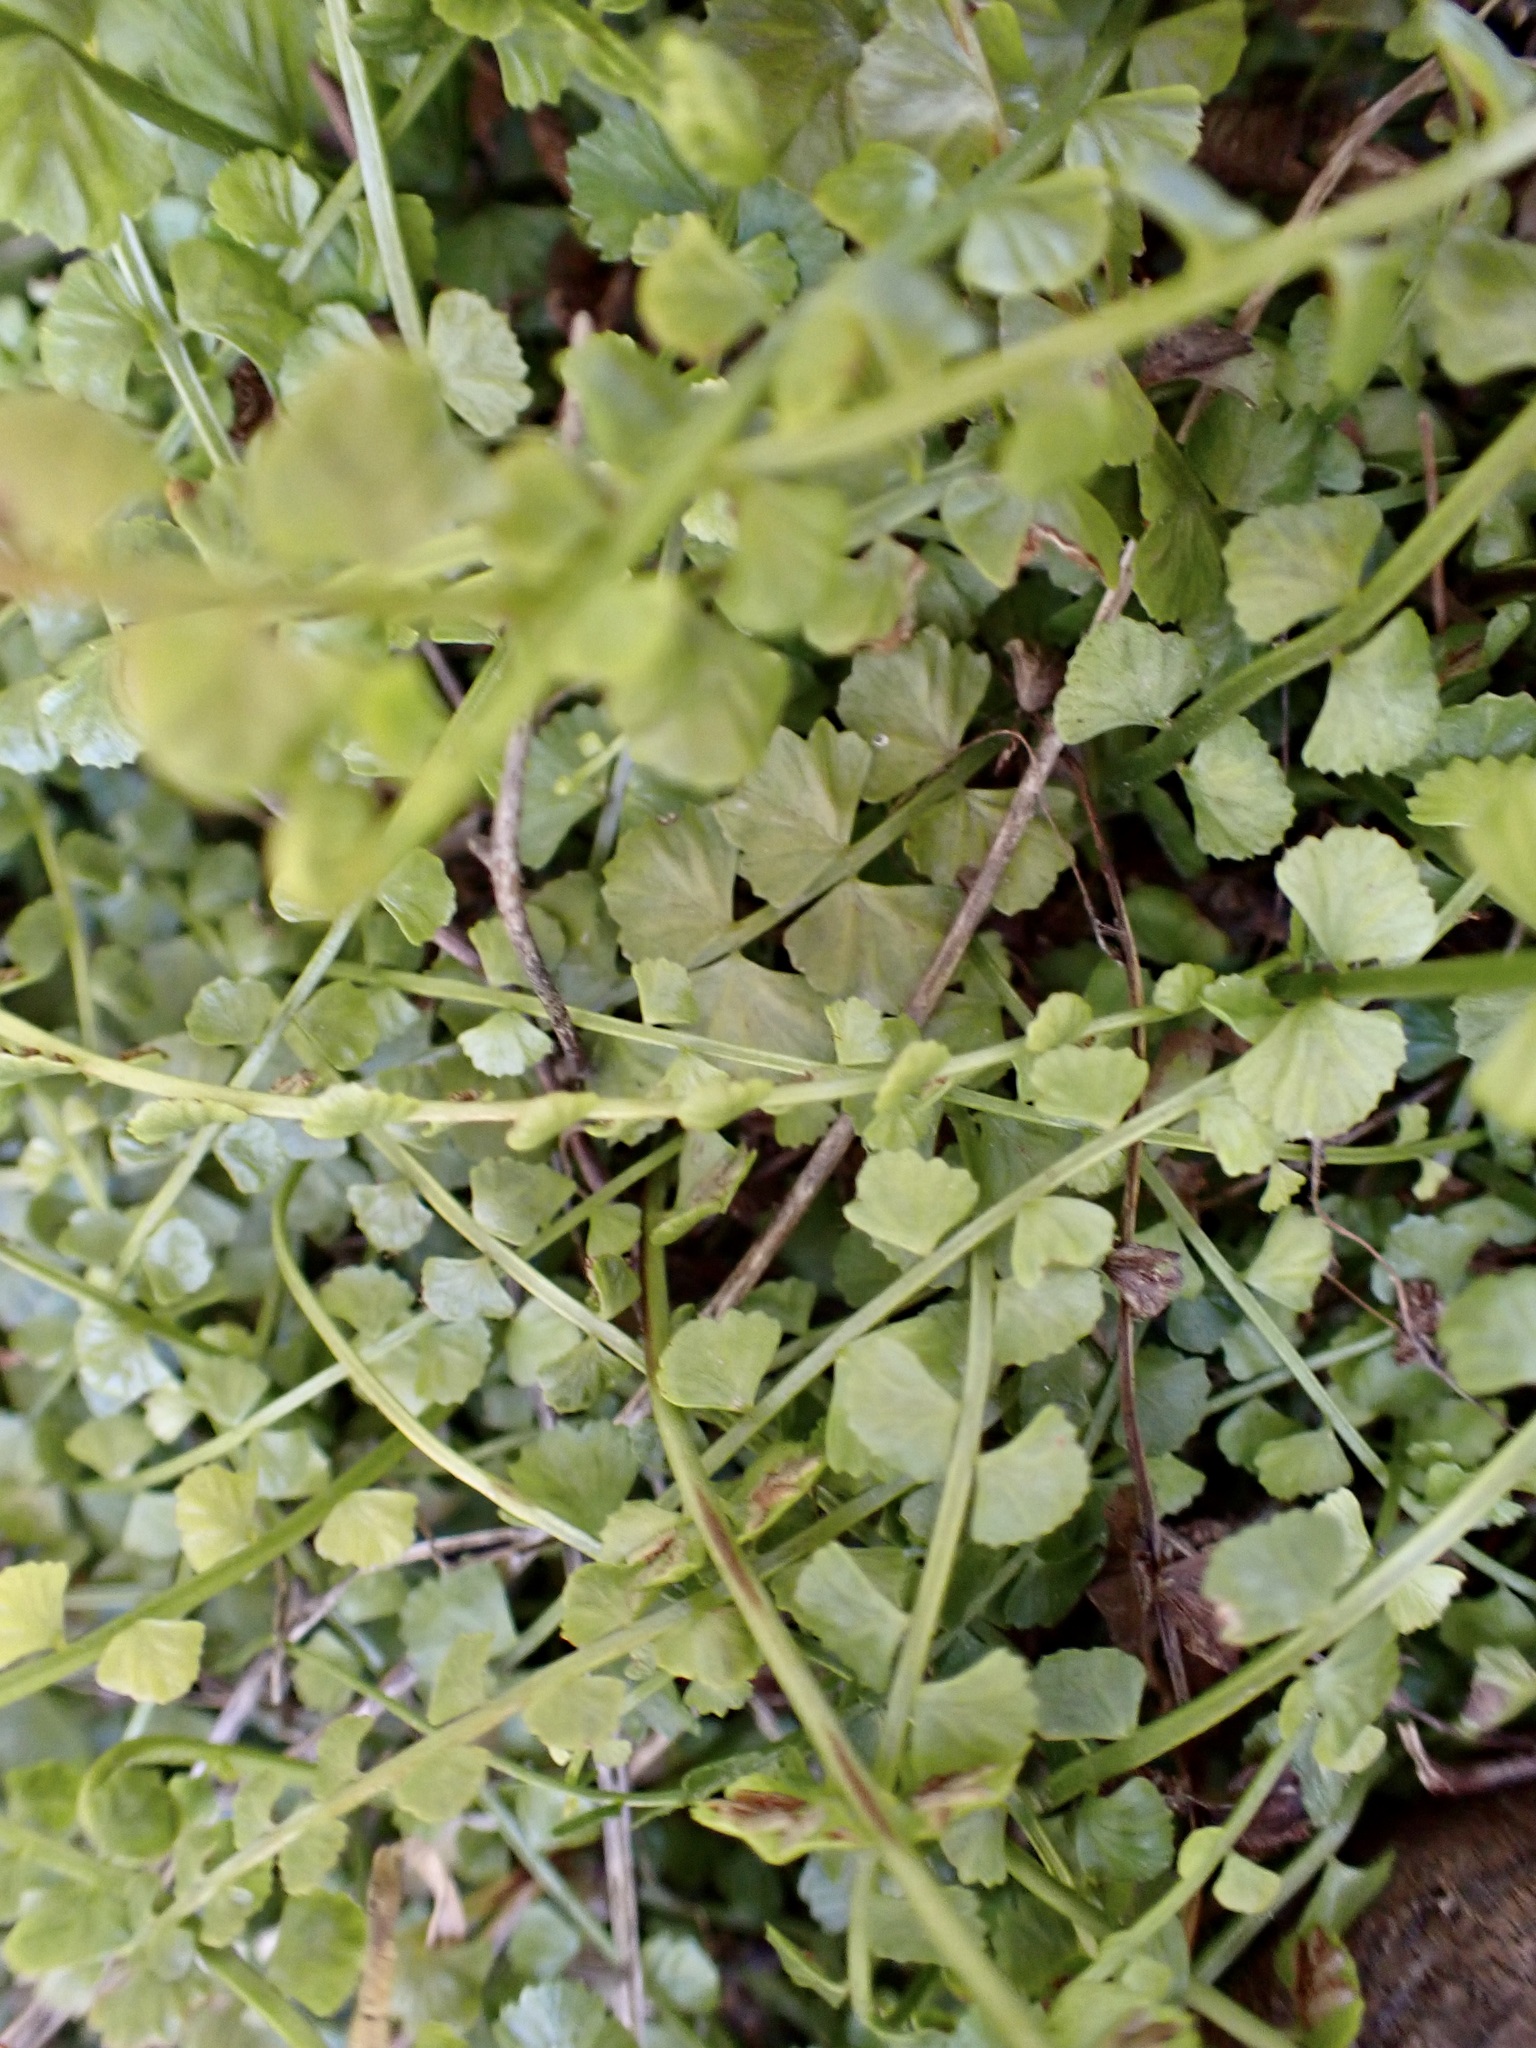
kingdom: Plantae
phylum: Tracheophyta
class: Polypodiopsida
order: Polypodiales
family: Aspleniaceae
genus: Asplenium
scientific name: Asplenium flabellifolium
